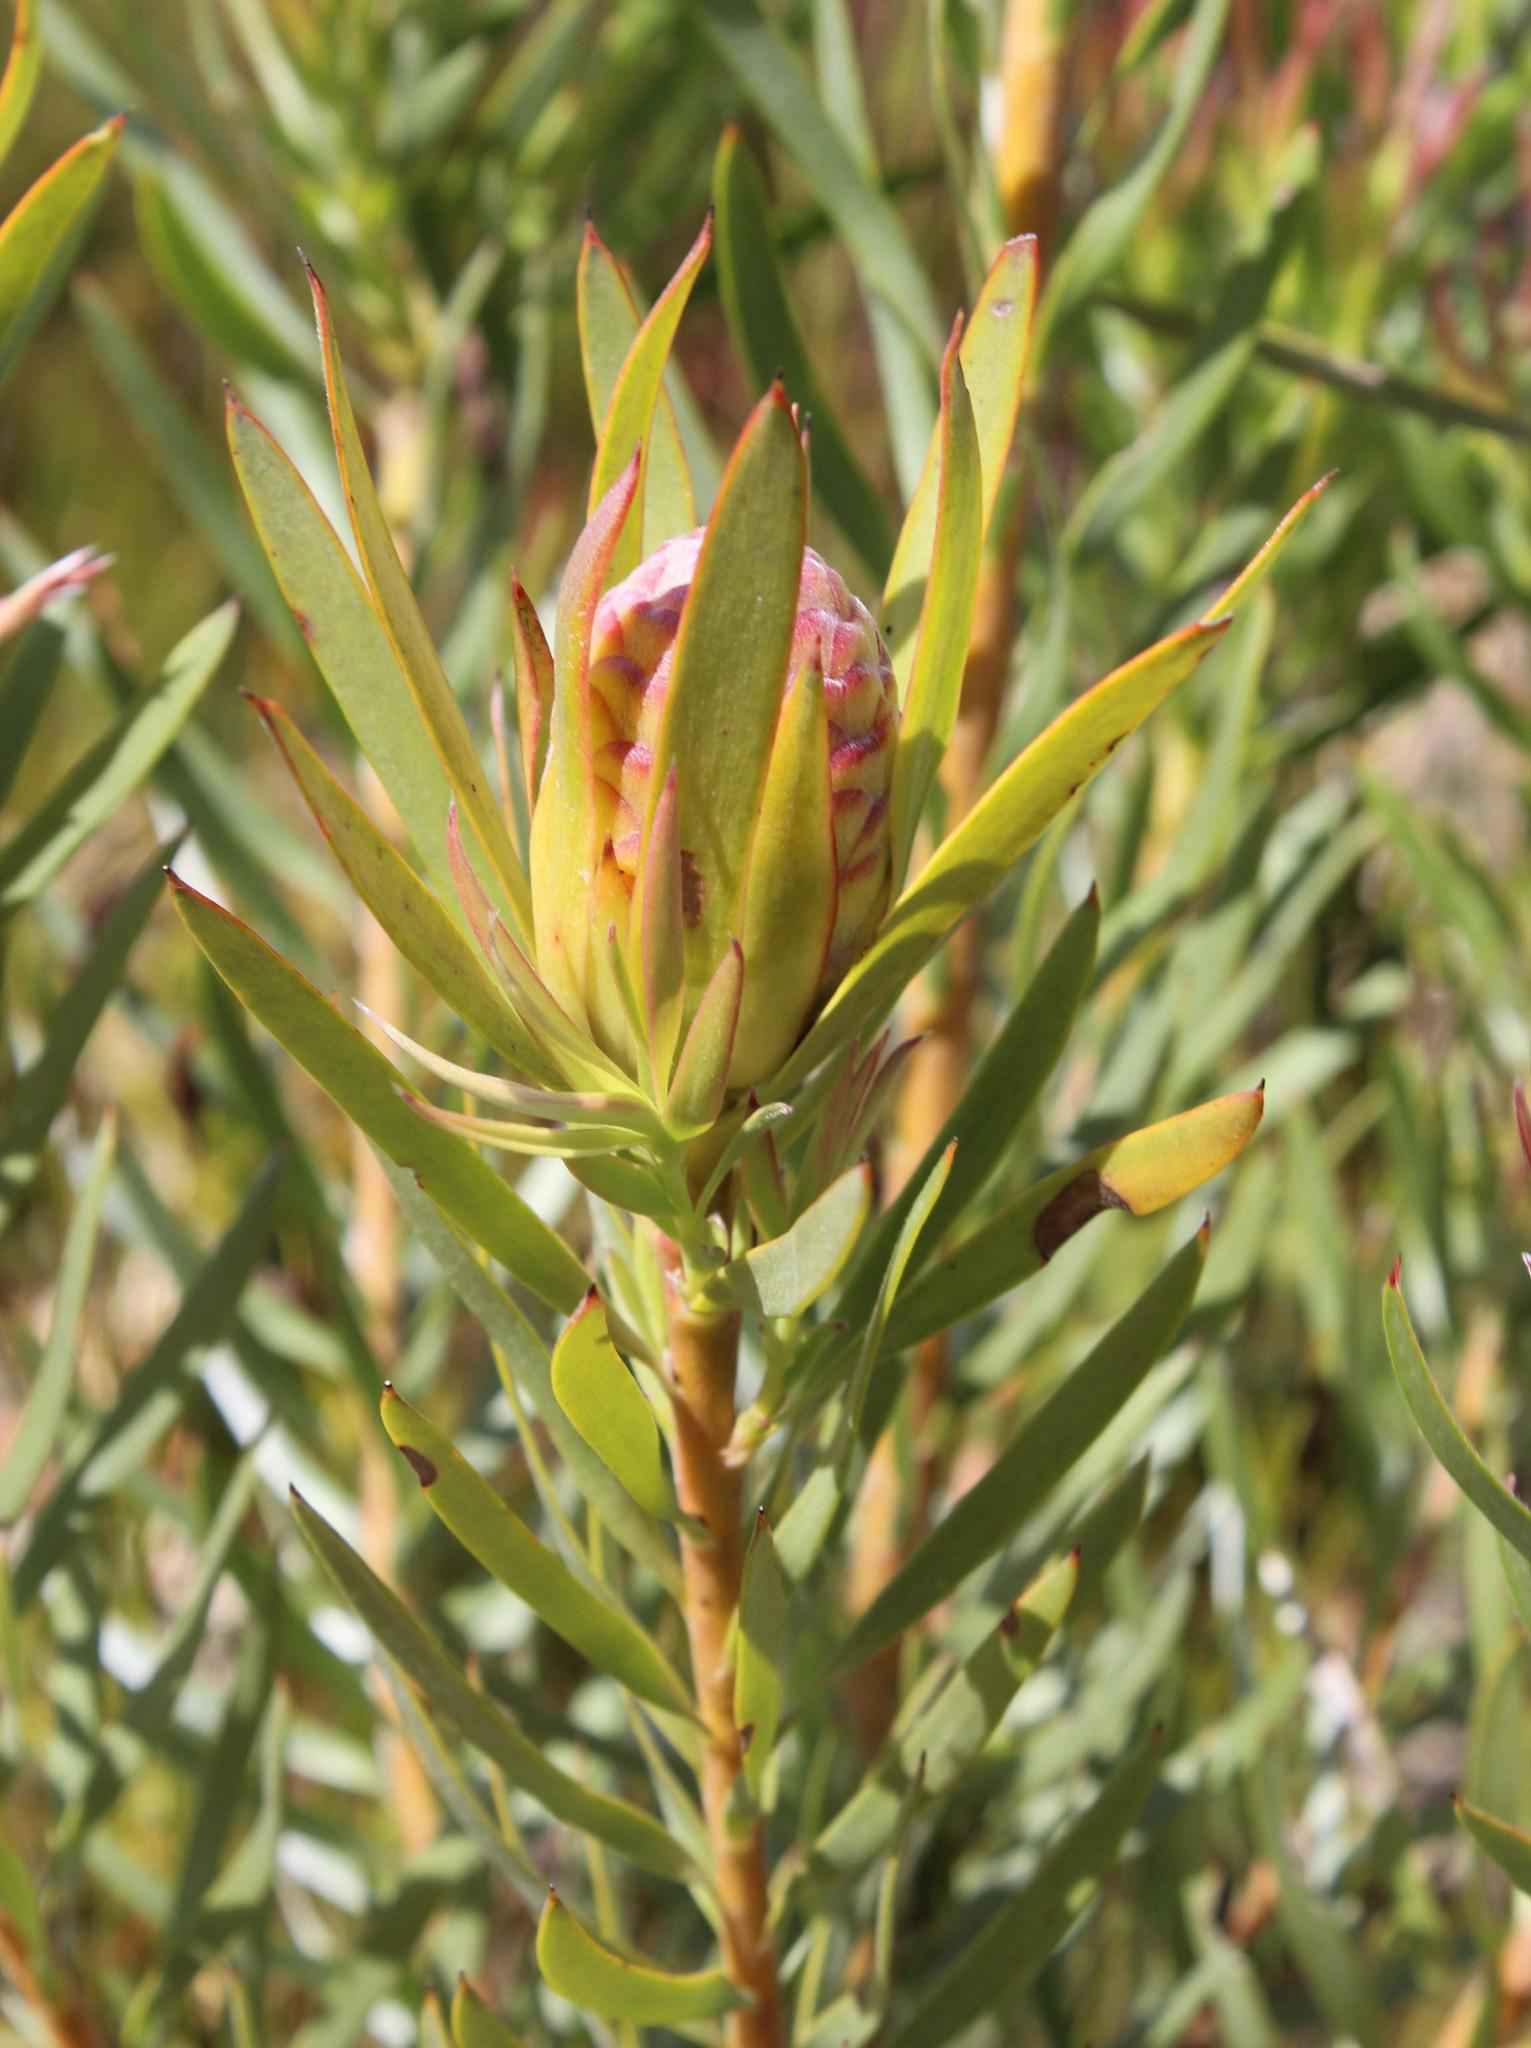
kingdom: Plantae
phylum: Tracheophyta
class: Magnoliopsida
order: Proteales
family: Proteaceae
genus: Leucadendron
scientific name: Leucadendron xanthoconus
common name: Sickle-leaf conebush
